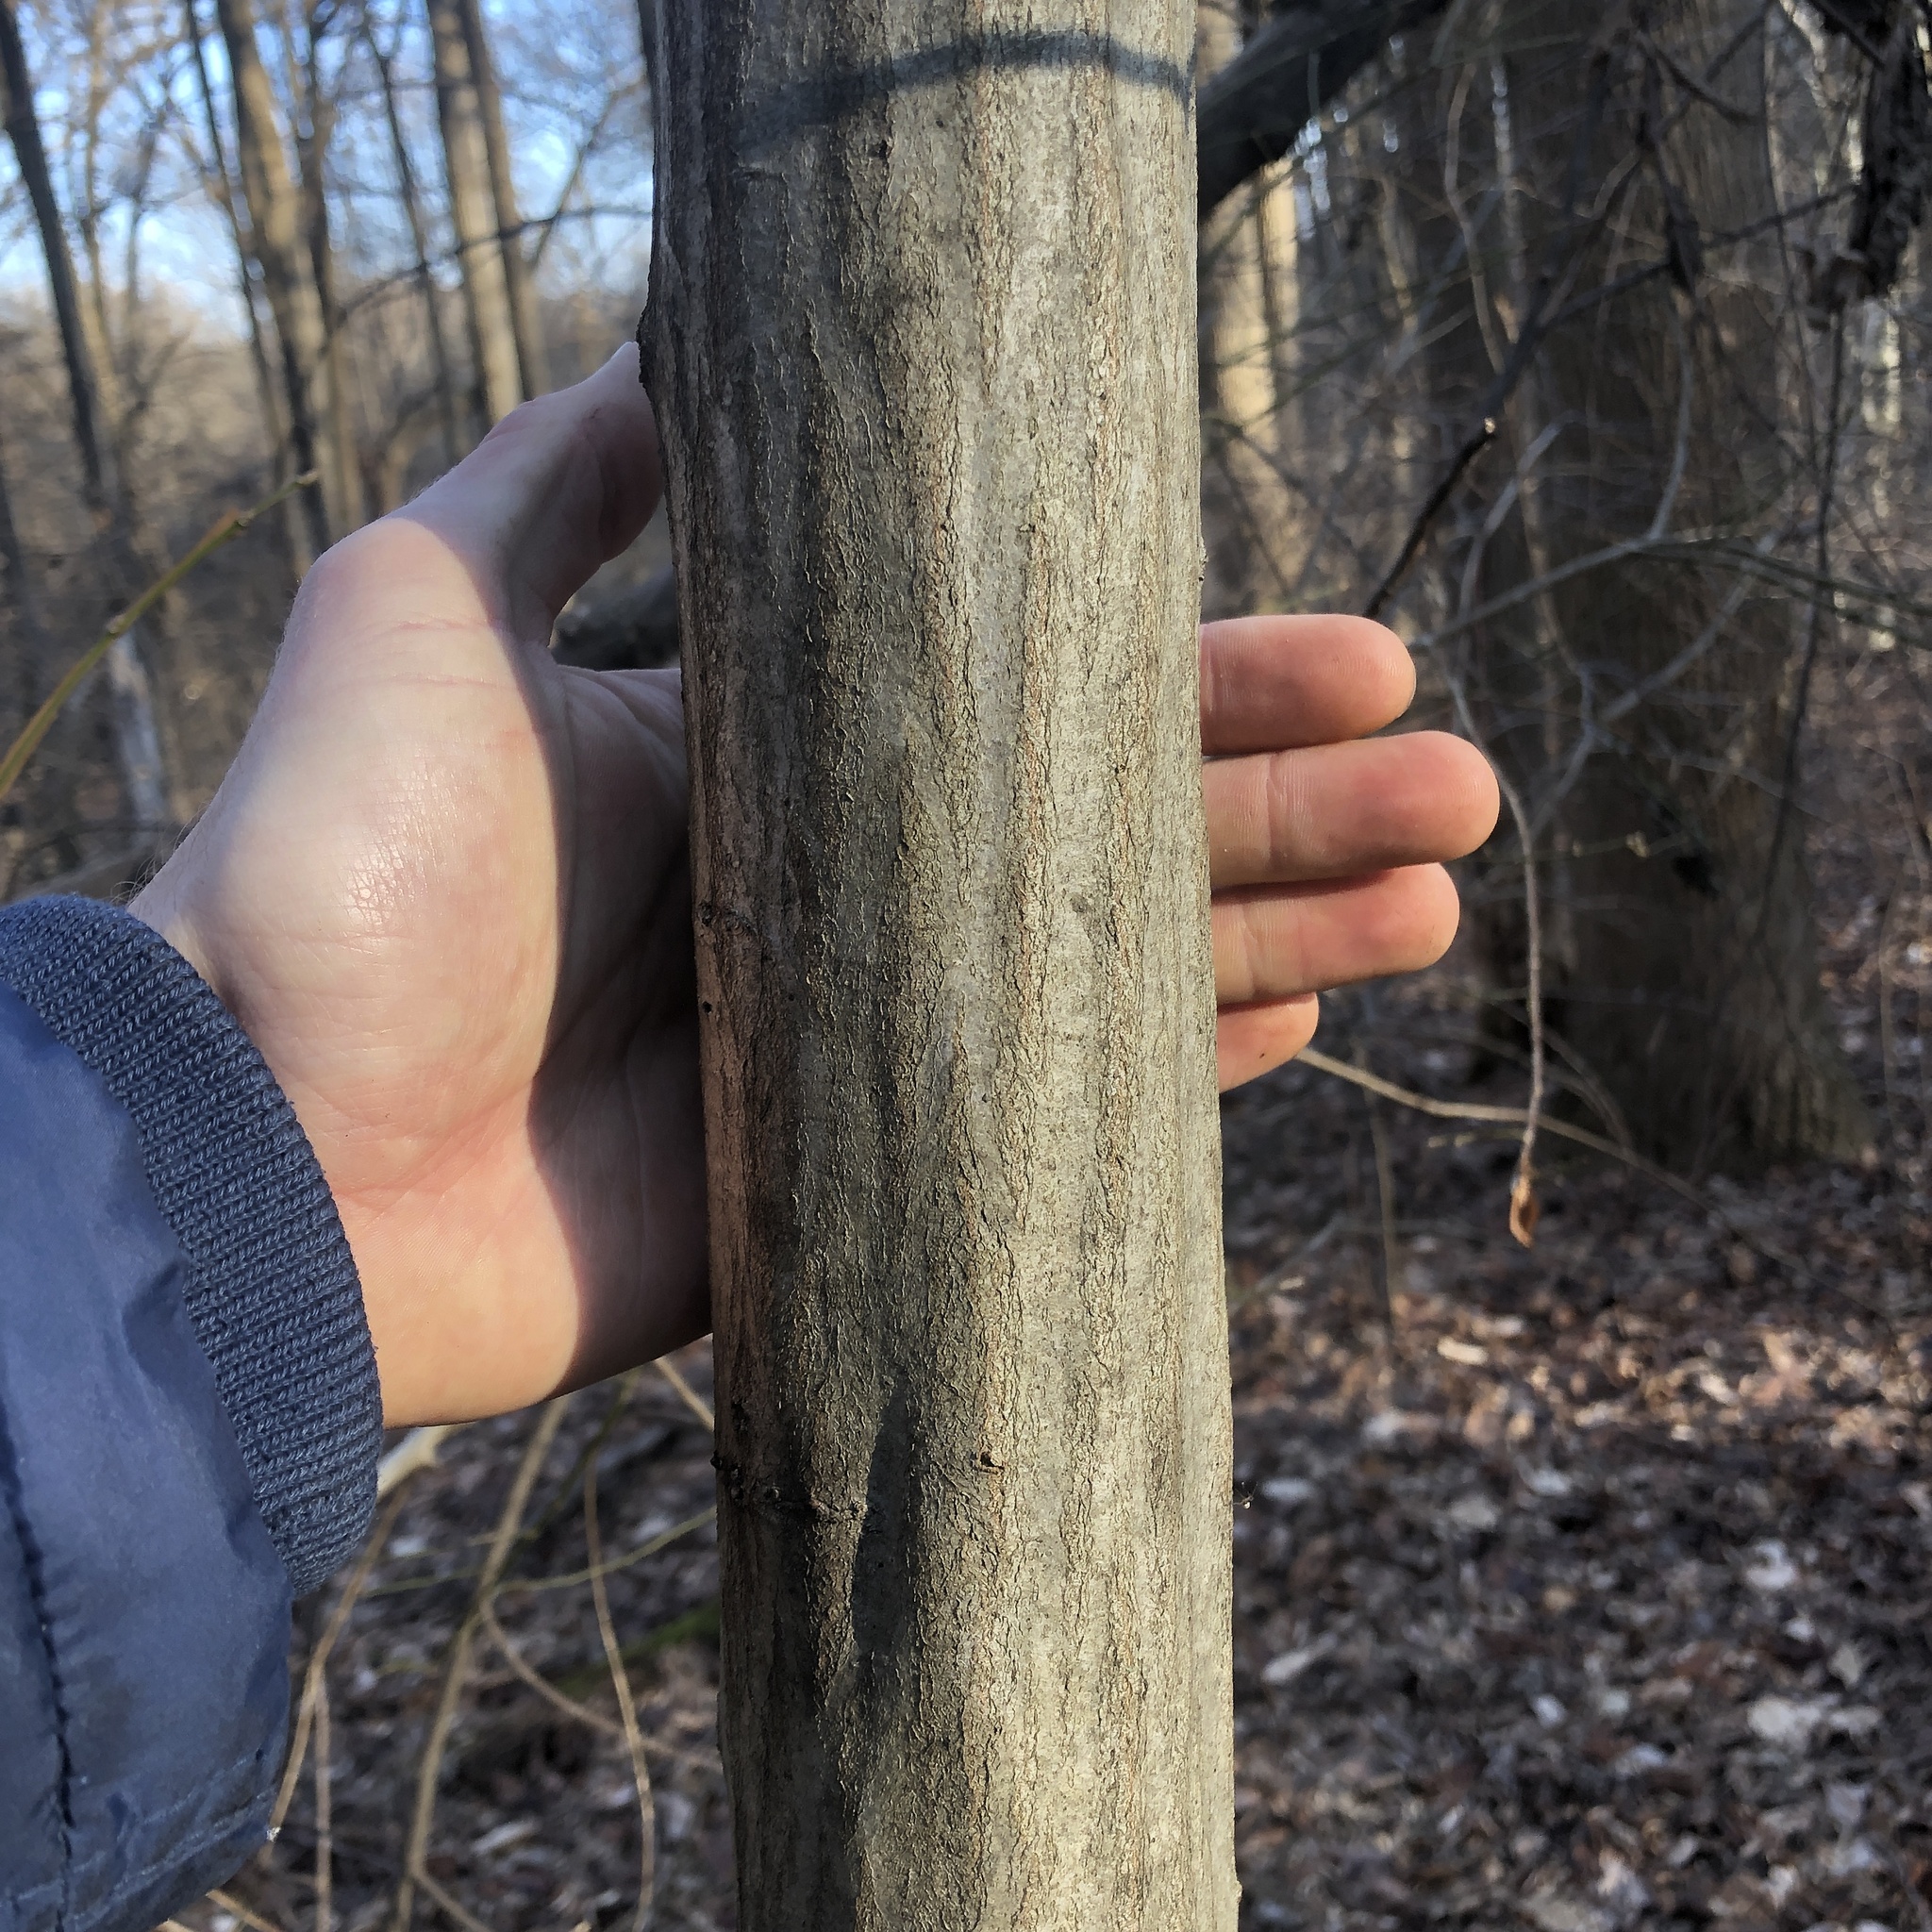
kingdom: Plantae
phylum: Tracheophyta
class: Magnoliopsida
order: Fagales
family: Betulaceae
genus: Carpinus
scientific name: Carpinus caroliniana
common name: American hornbeam
